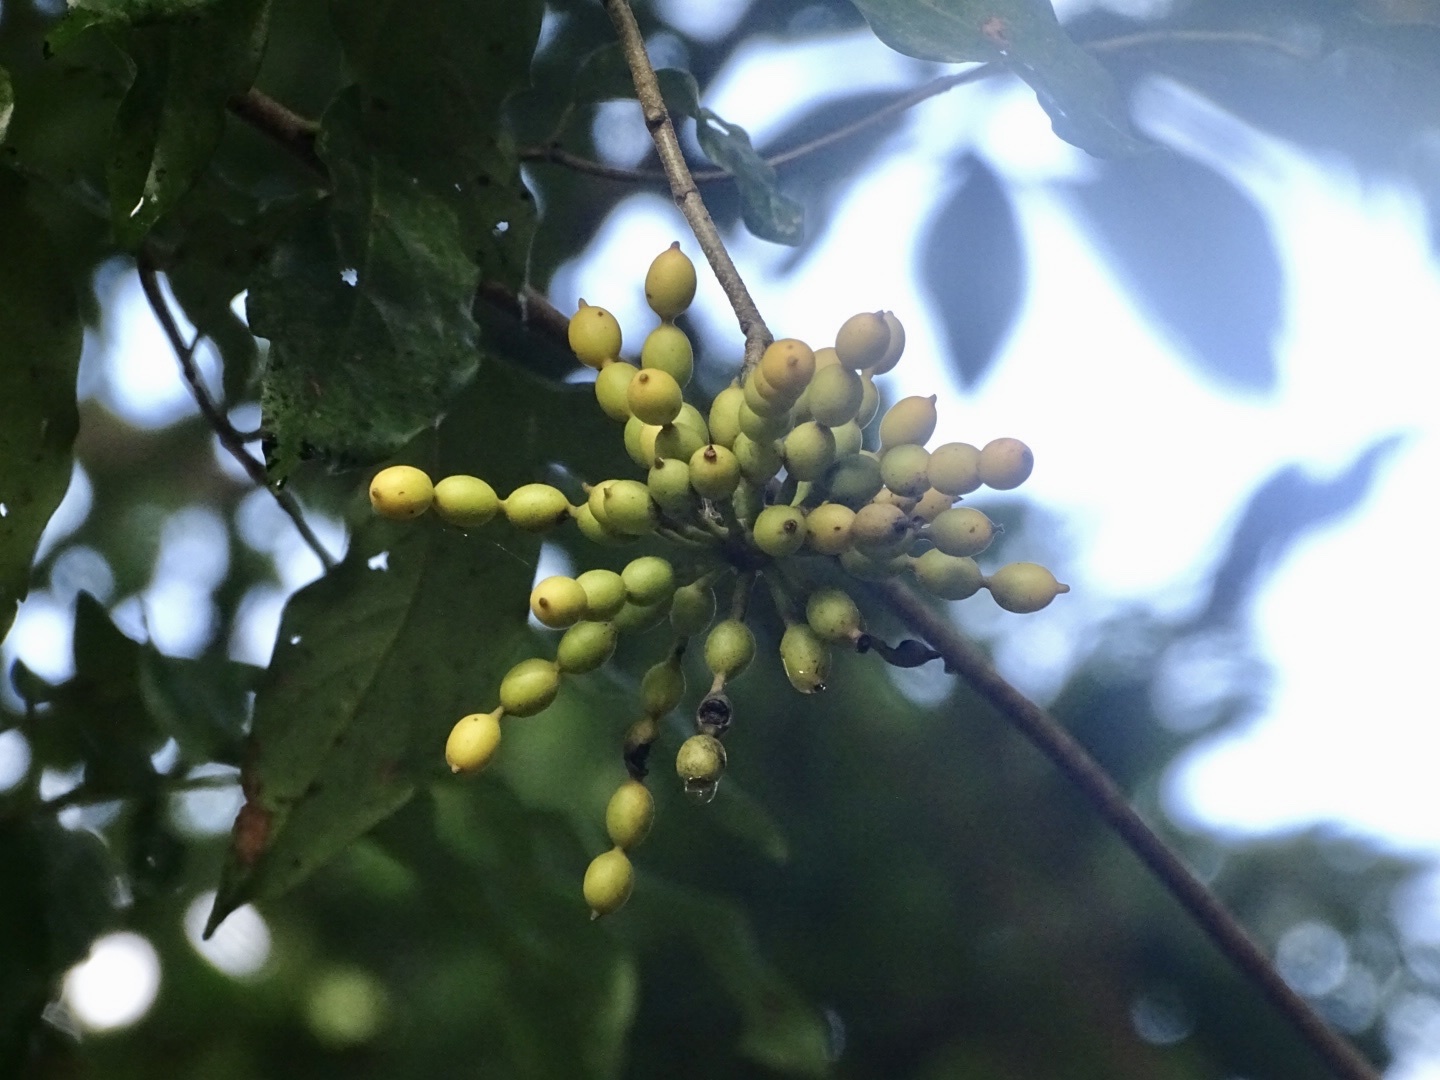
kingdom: Plantae
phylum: Tracheophyta
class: Magnoliopsida
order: Magnoliales
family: Annonaceae
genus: Desmos
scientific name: Desmos chinensis
